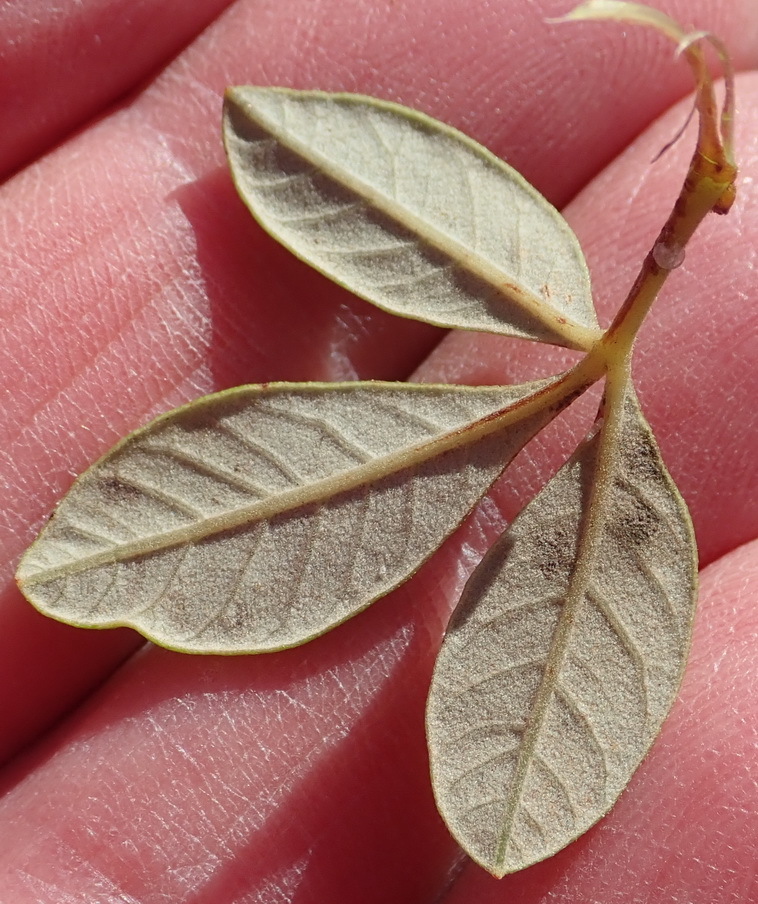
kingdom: Plantae
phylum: Tracheophyta
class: Magnoliopsida
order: Sapindales
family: Anacardiaceae
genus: Searsia
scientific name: Searsia tomentosa
